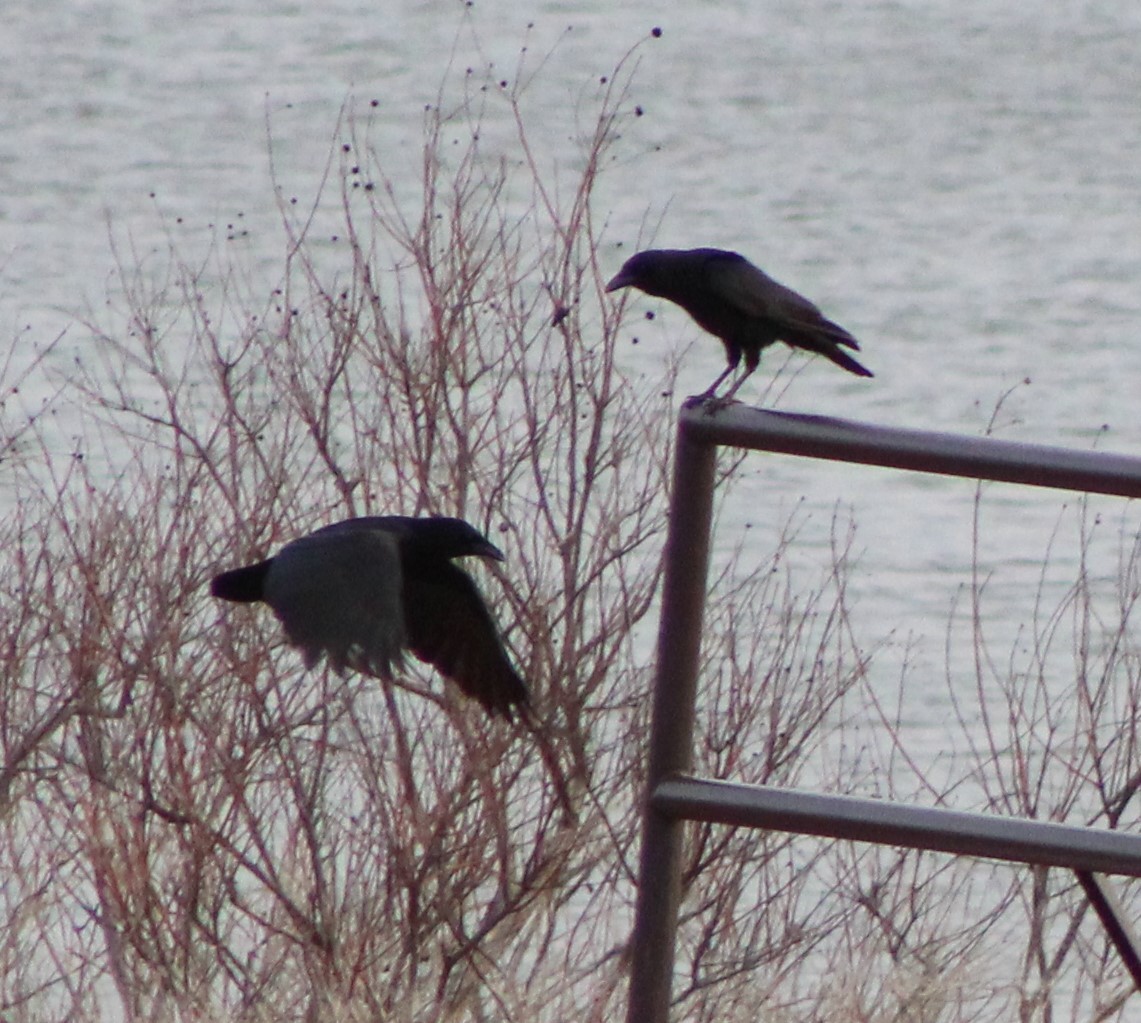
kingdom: Animalia
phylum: Chordata
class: Aves
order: Passeriformes
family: Corvidae
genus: Corvus
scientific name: Corvus brachyrhynchos
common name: American crow
